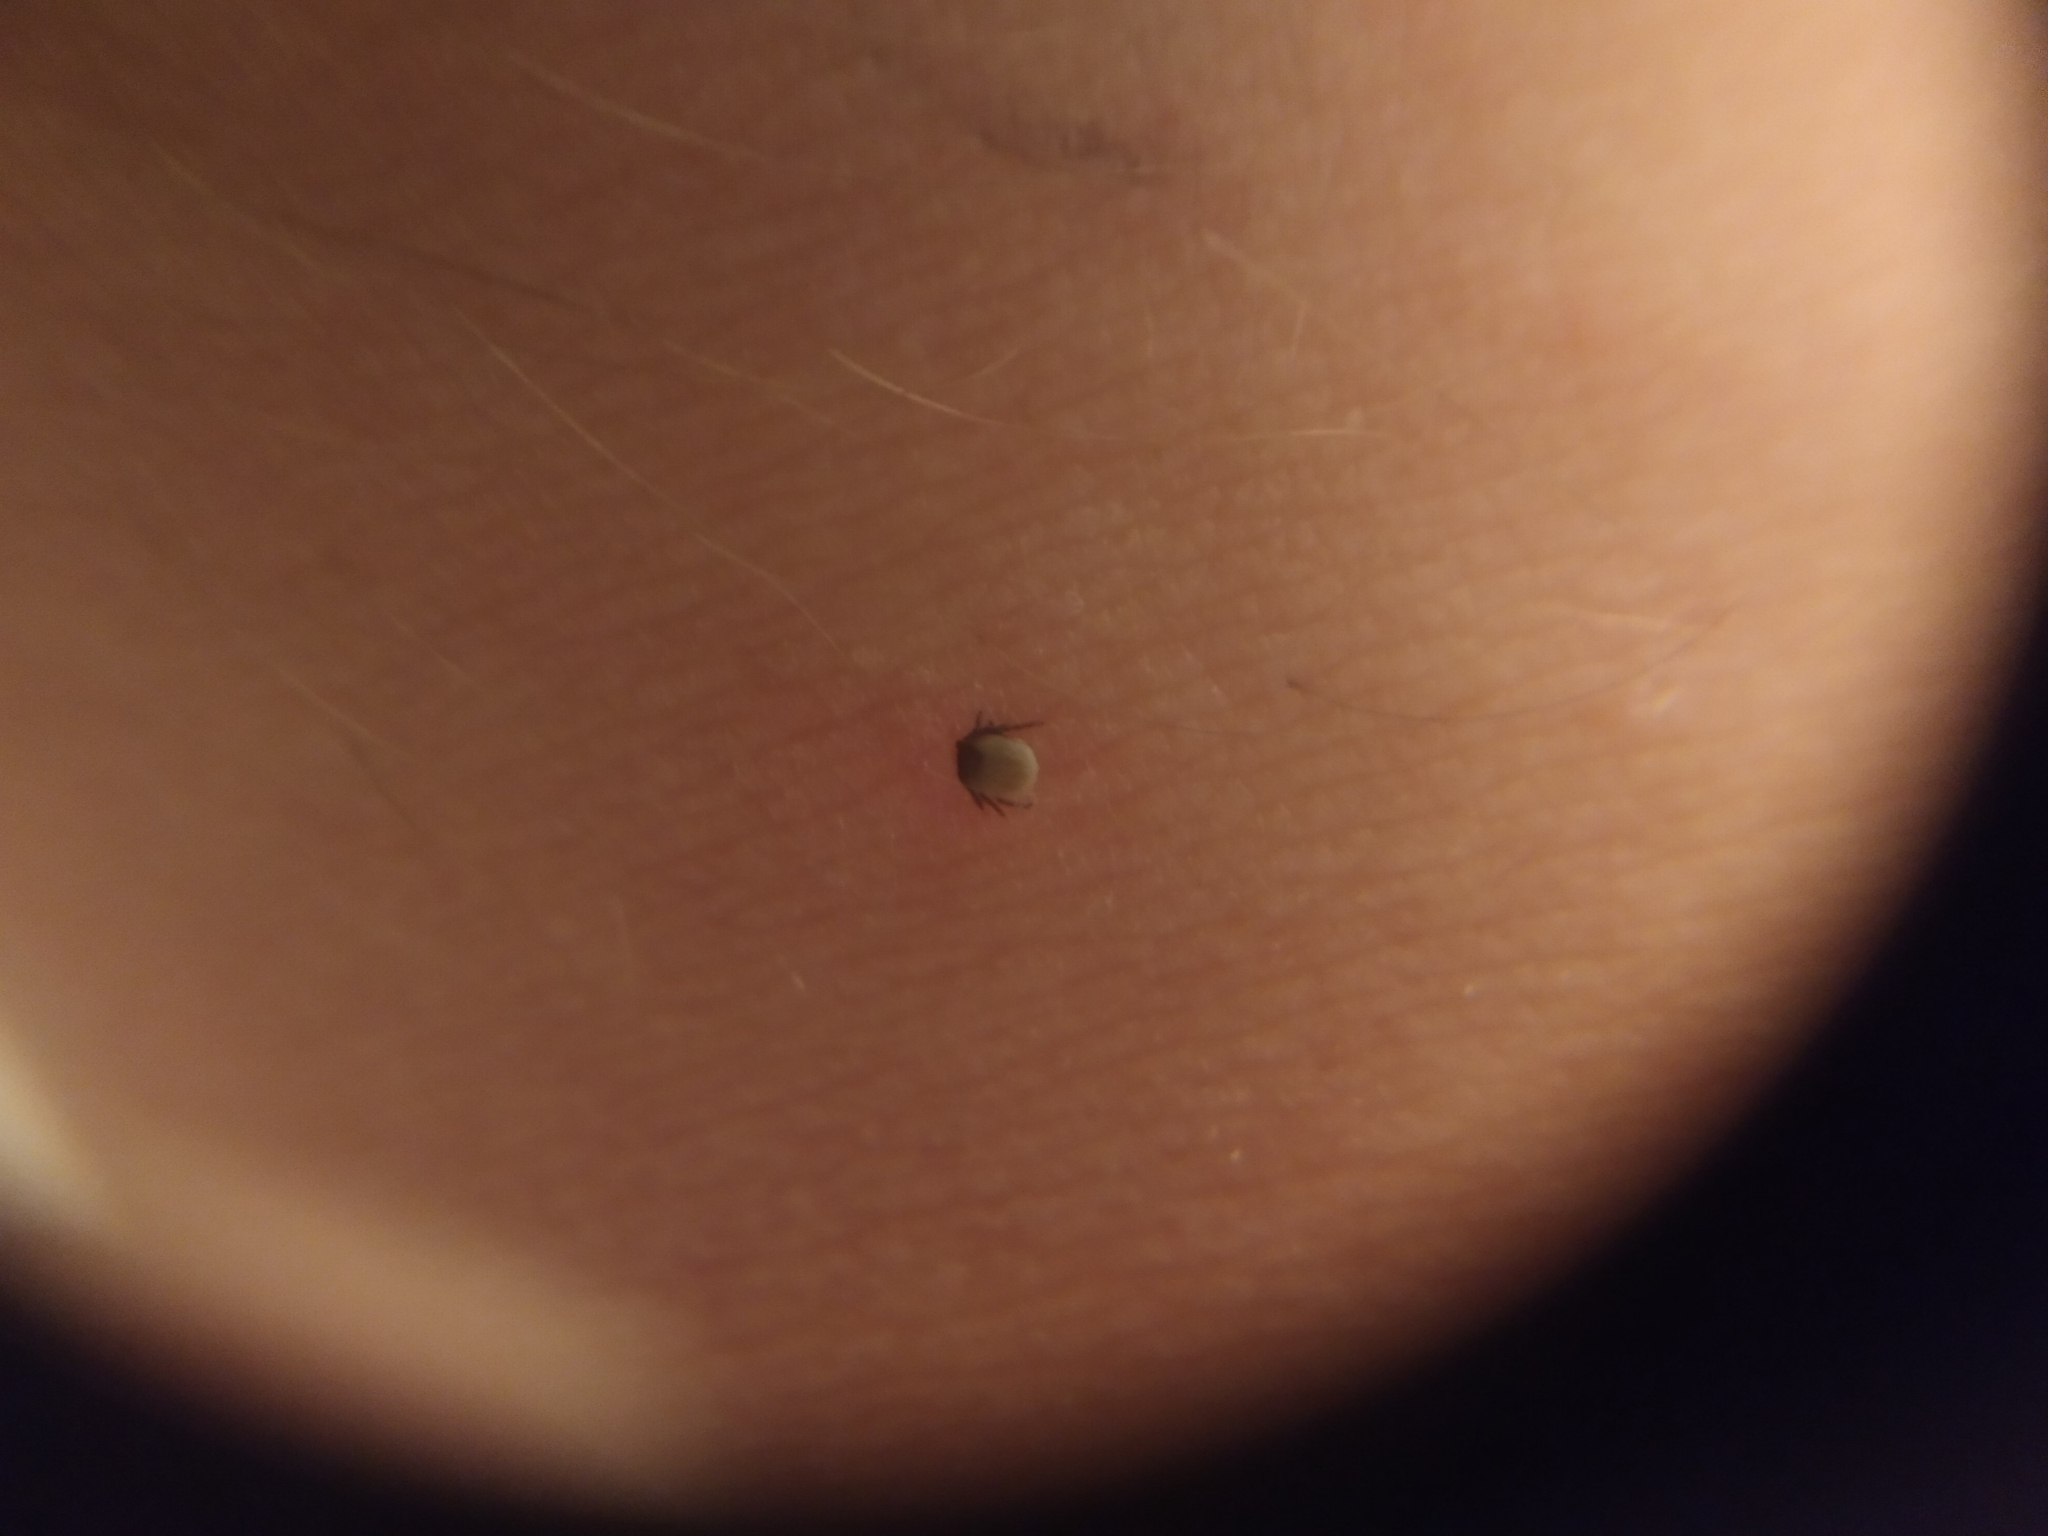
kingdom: Animalia
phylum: Arthropoda
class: Arachnida
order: Ixodida
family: Ixodidae
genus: Ixodes
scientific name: Ixodes ricinus
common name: Castor bean tick
